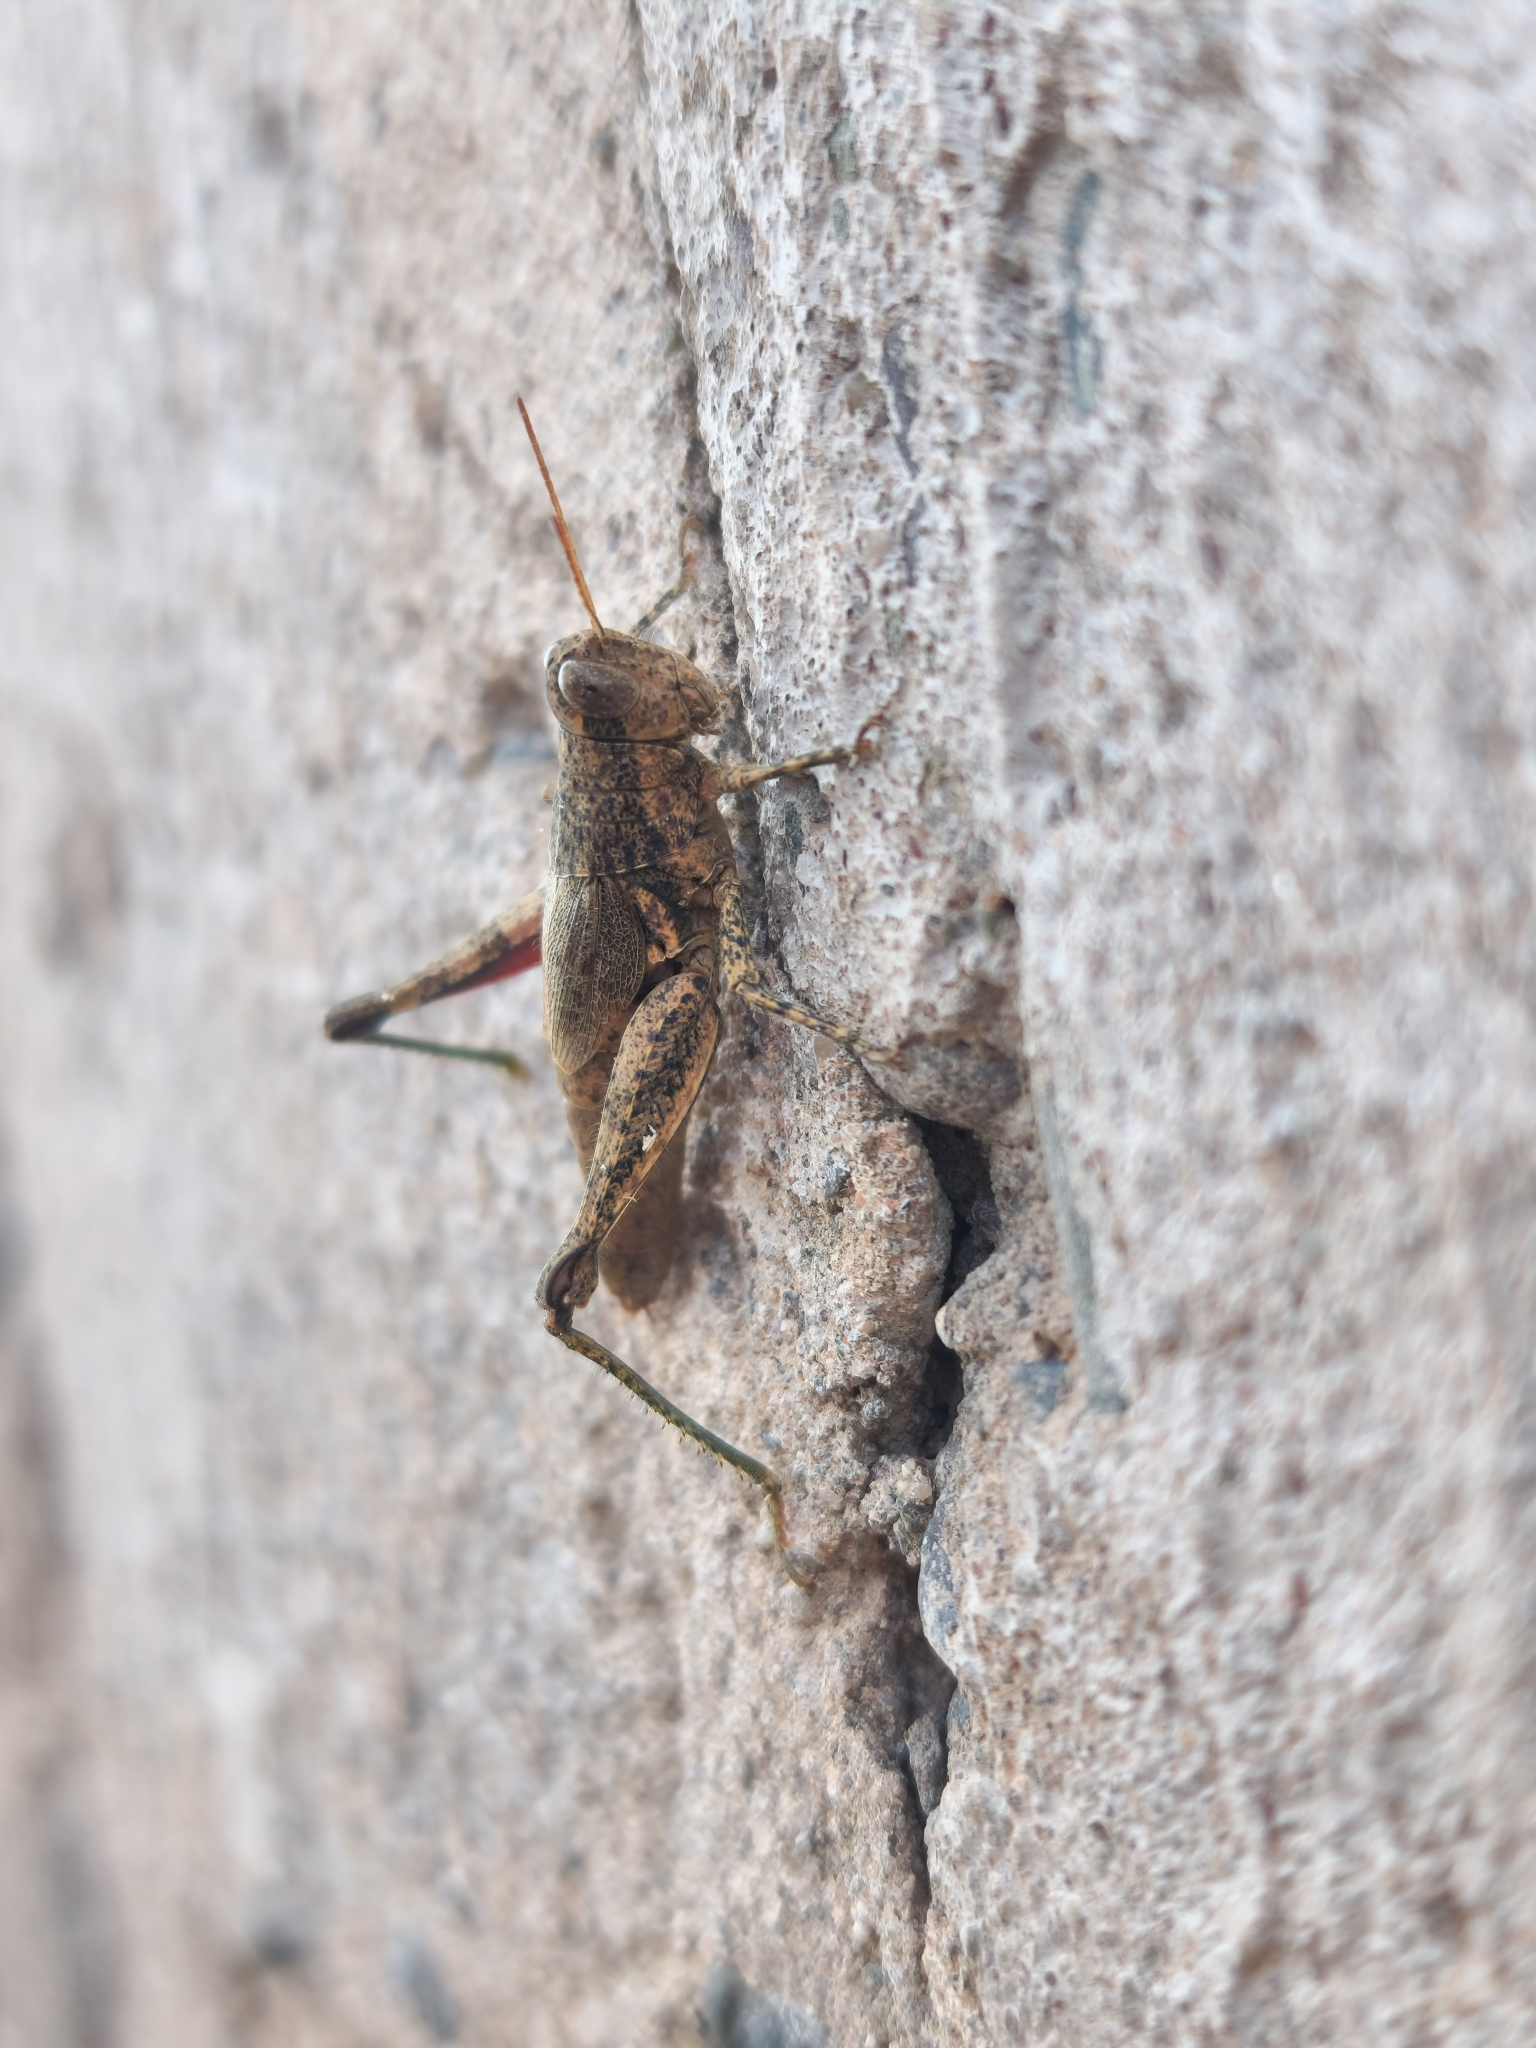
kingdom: Animalia
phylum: Arthropoda
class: Insecta
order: Orthoptera
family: Acrididae
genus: Dichroplus
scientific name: Dichroplus schulzi
